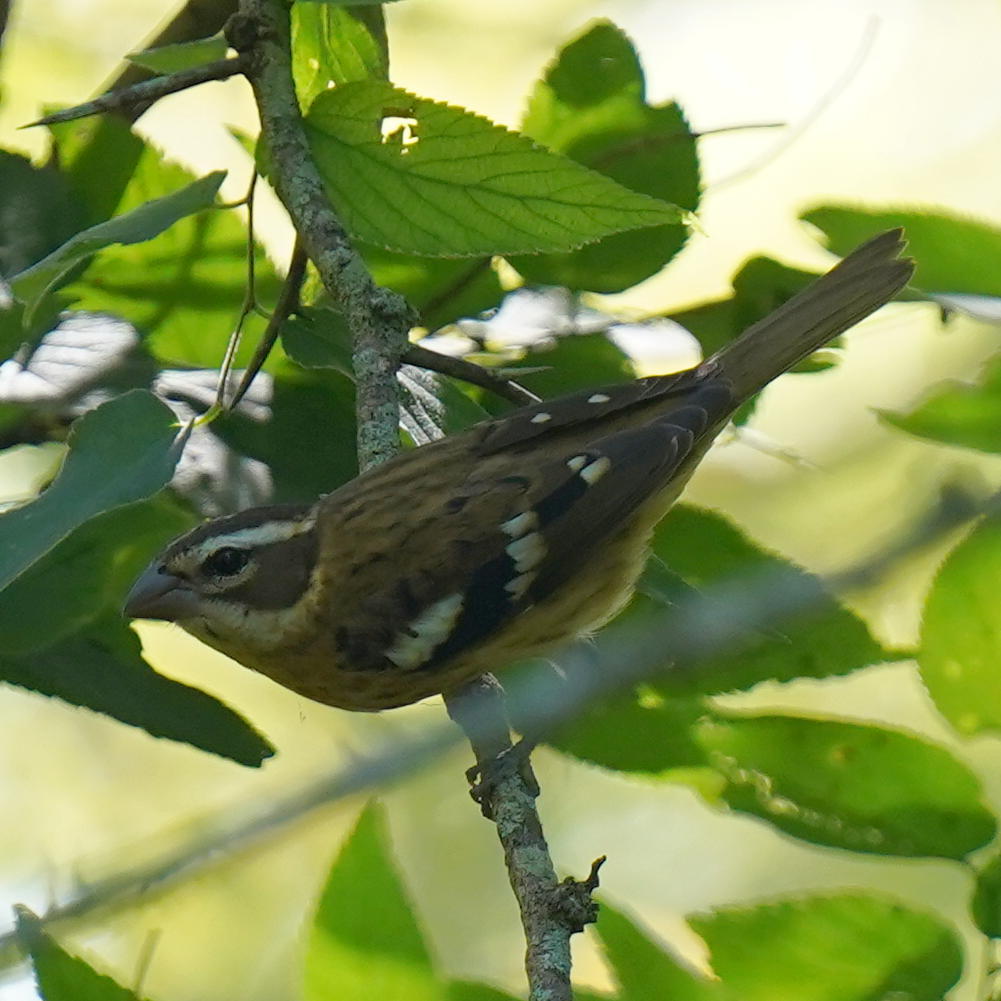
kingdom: Animalia
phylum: Chordata
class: Aves
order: Passeriformes
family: Cardinalidae
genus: Pheucticus
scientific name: Pheucticus ludovicianus
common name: Rose-breasted grosbeak
